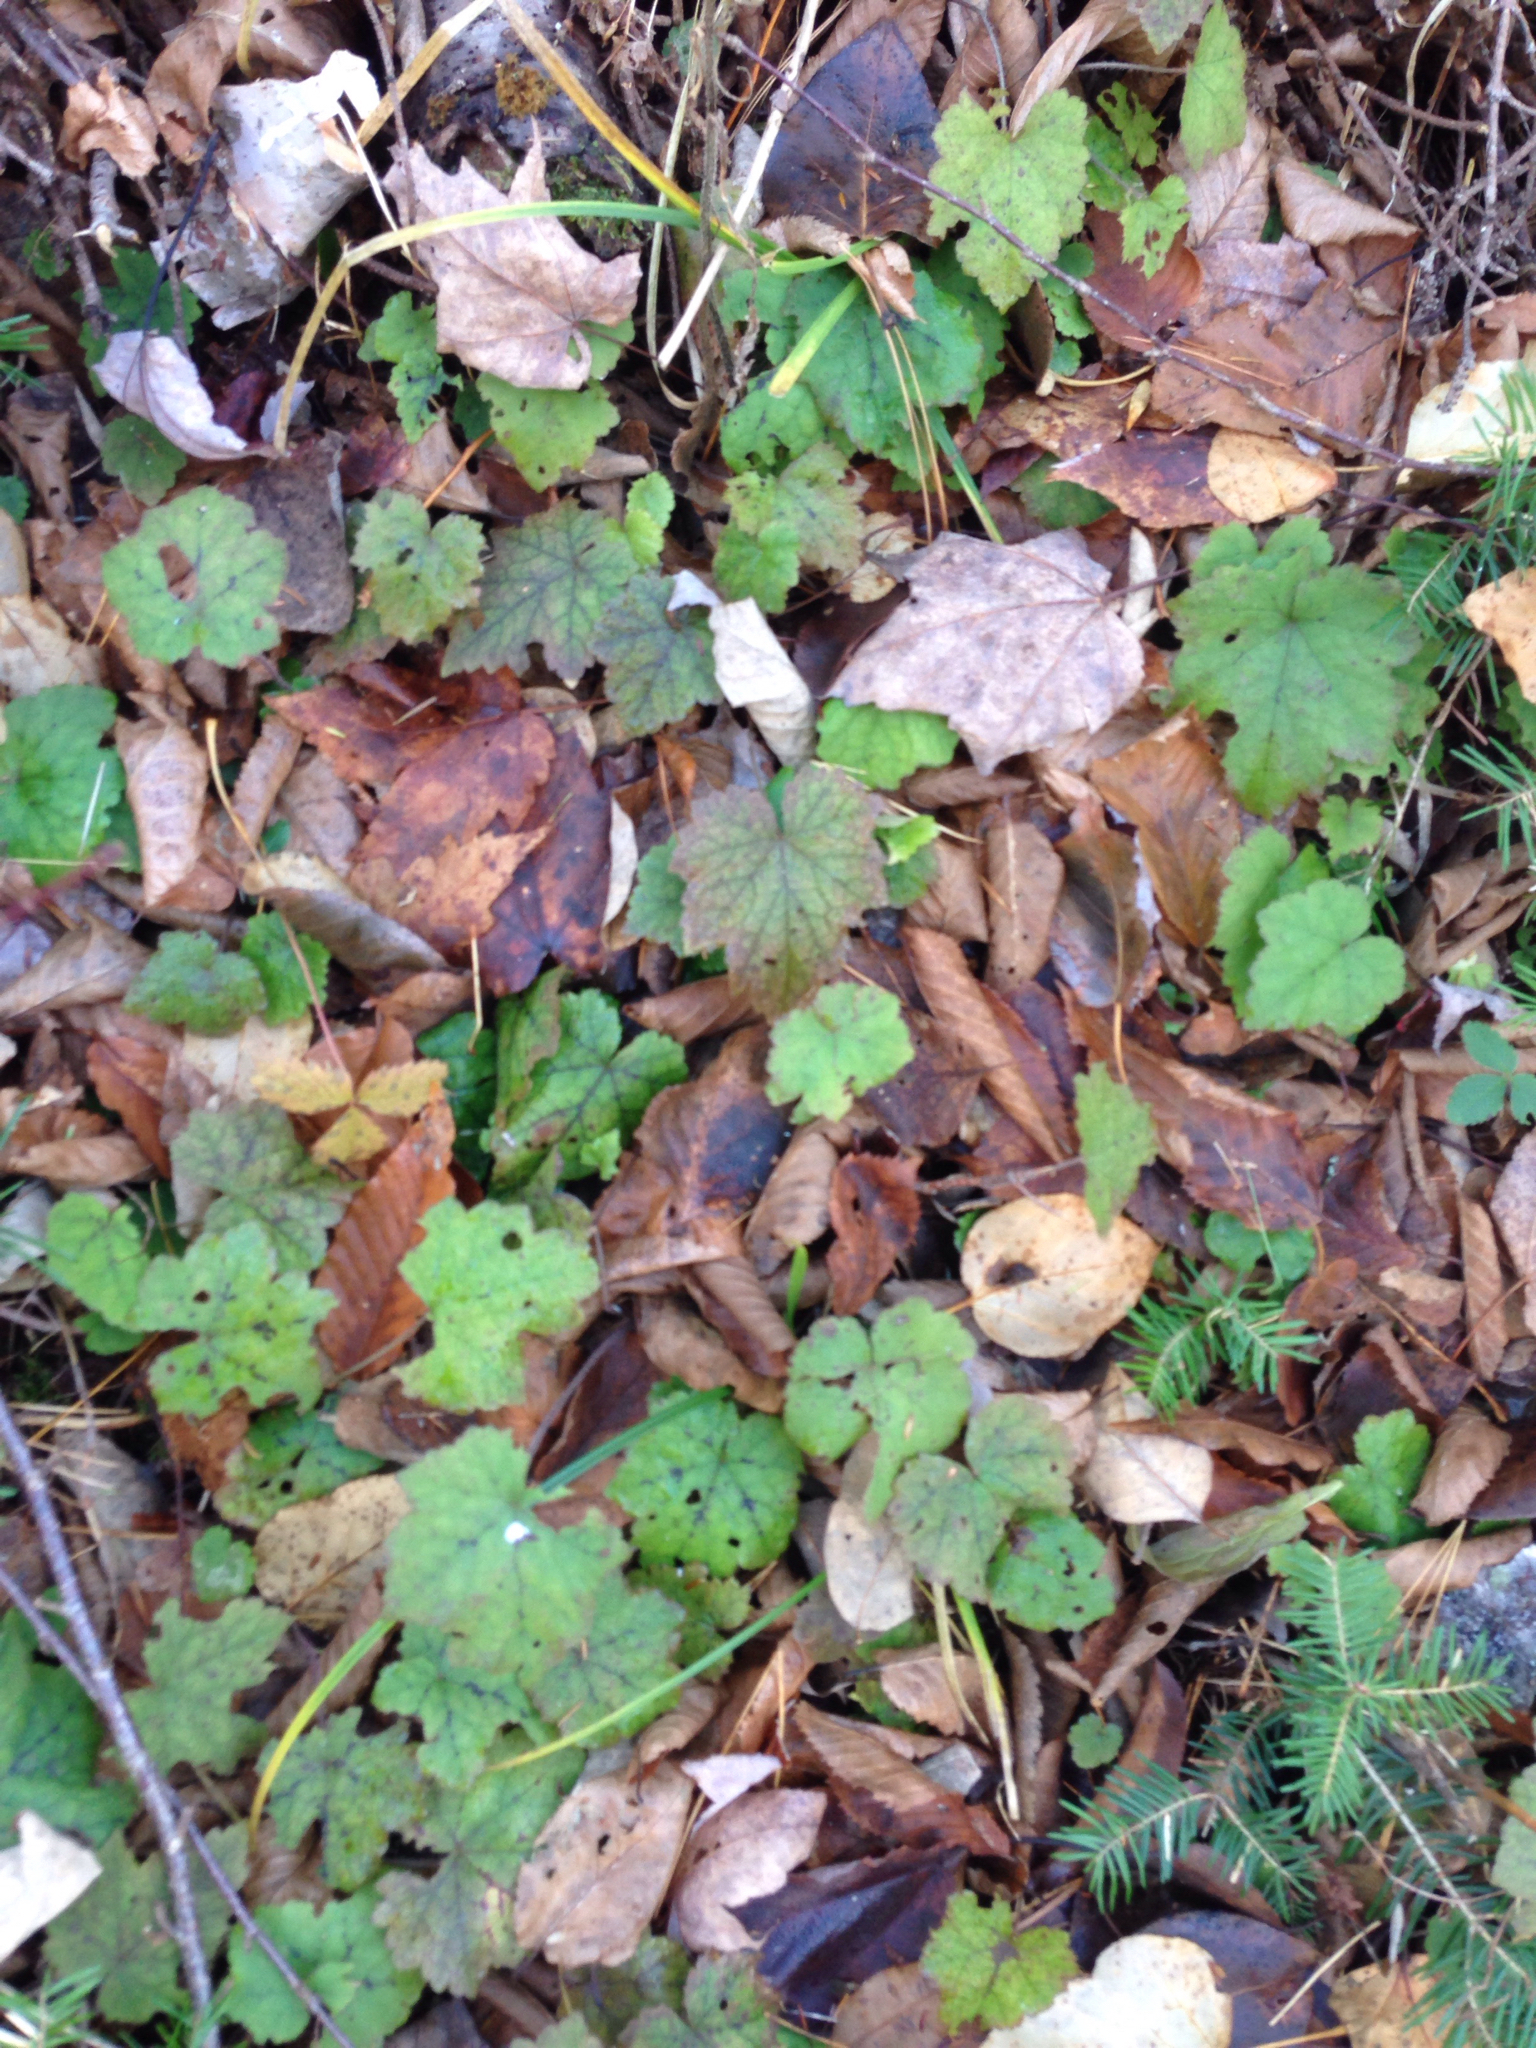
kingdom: Plantae
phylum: Tracheophyta
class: Magnoliopsida
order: Saxifragales
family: Saxifragaceae
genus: Tiarella
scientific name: Tiarella stolonifera
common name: Stoloniferous foamflower
